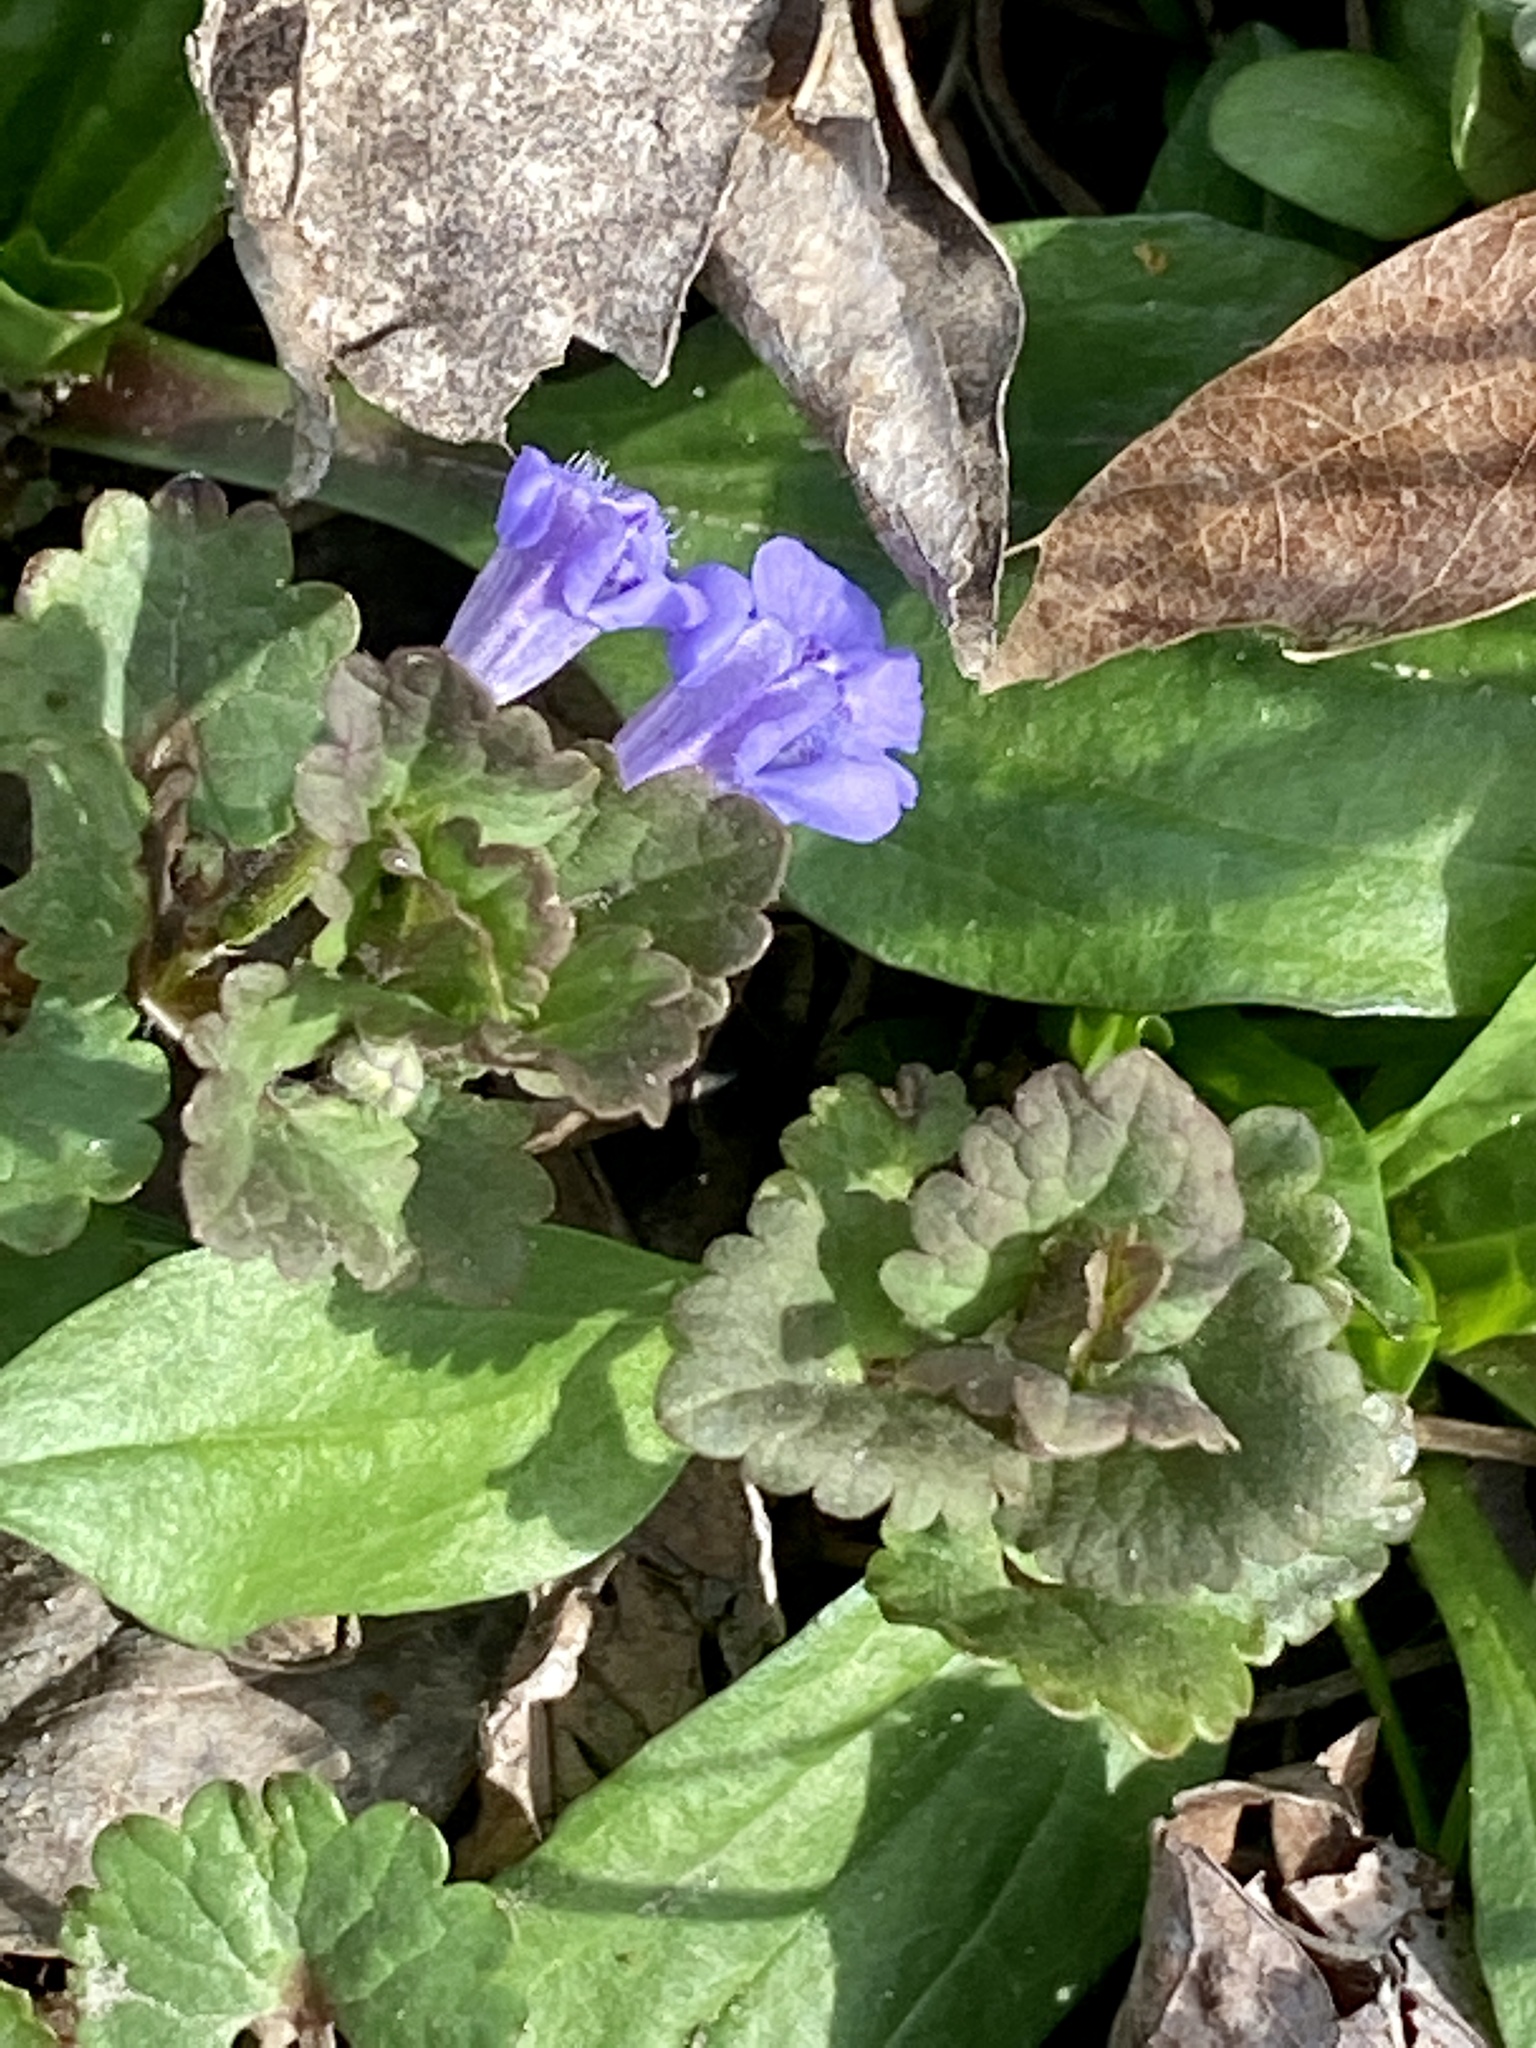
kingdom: Plantae
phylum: Tracheophyta
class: Magnoliopsida
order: Lamiales
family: Lamiaceae
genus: Glechoma
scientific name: Glechoma hederacea
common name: Ground ivy
